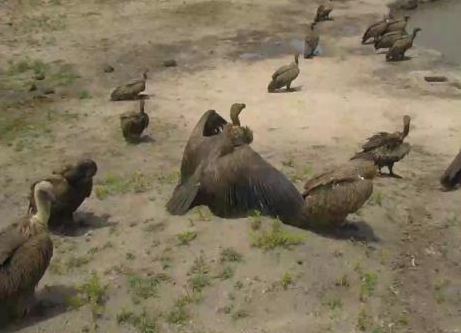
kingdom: Animalia
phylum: Chordata
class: Aves
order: Accipitriformes
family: Accipitridae
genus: Gyps
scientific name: Gyps africanus
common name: White-backed vulture
